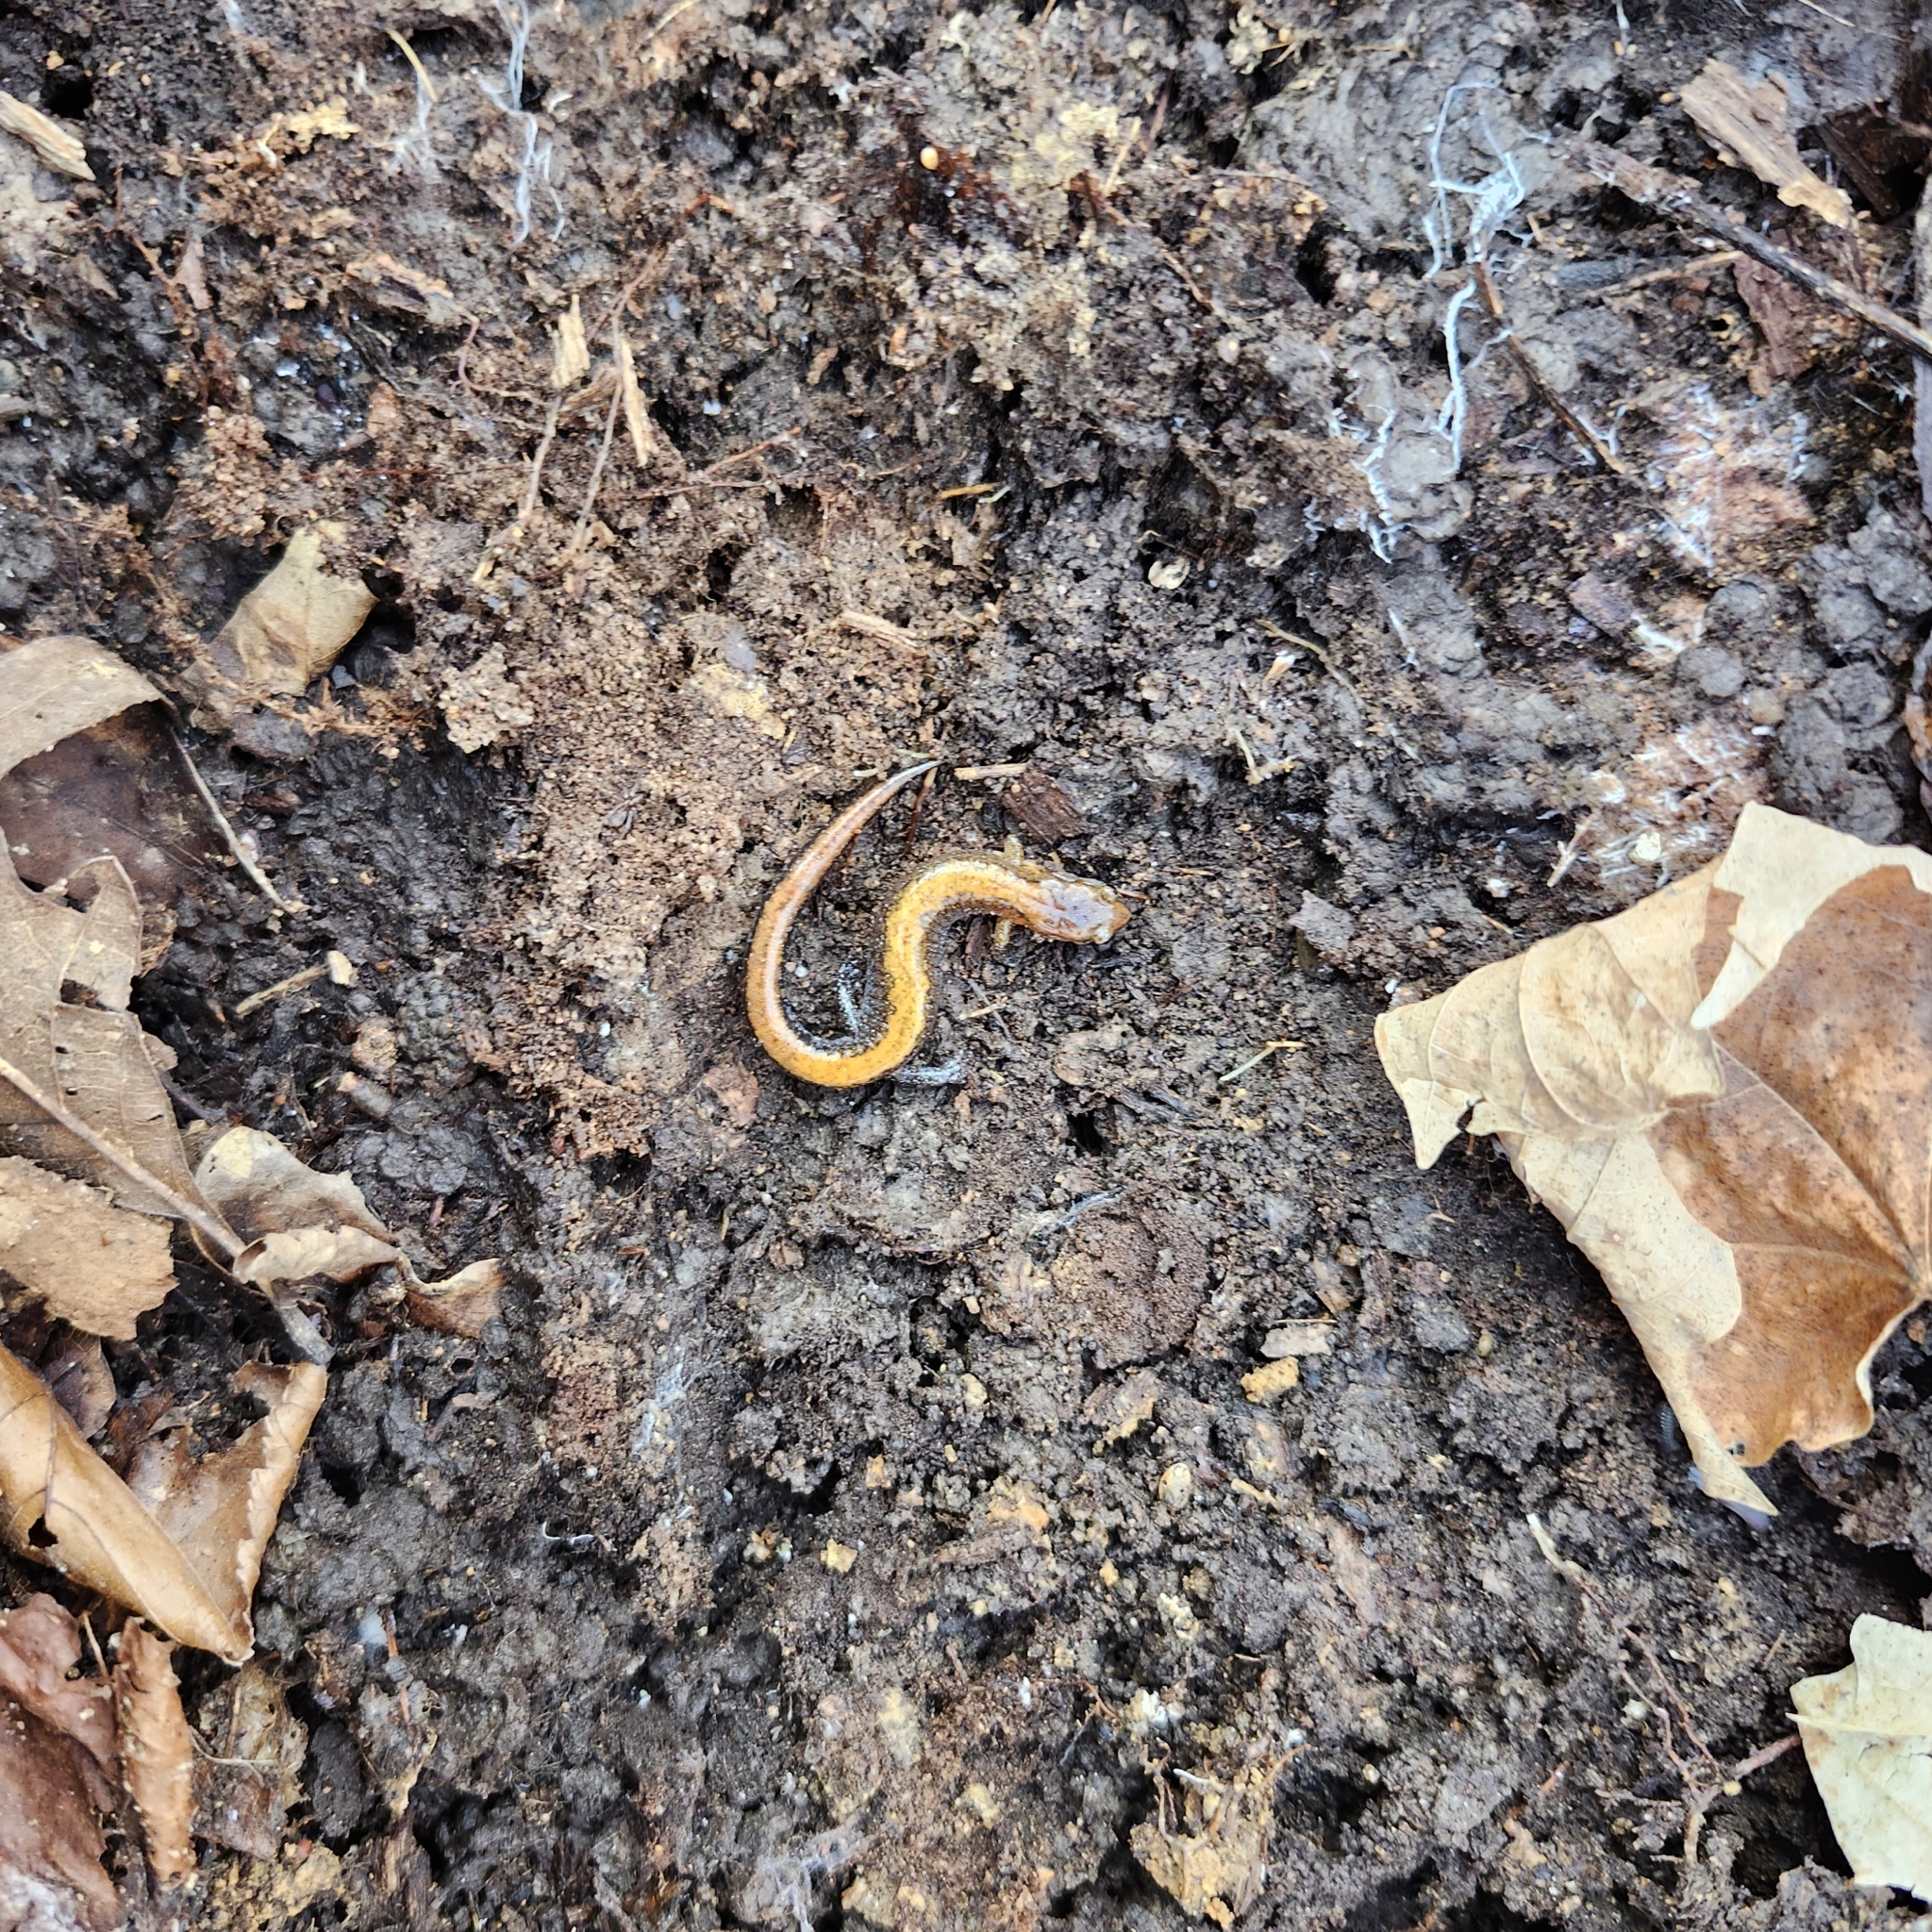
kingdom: Animalia
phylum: Chordata
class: Amphibia
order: Caudata
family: Plethodontidae
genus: Plethodon
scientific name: Plethodon ventralis
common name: Southern zigzag salamander
